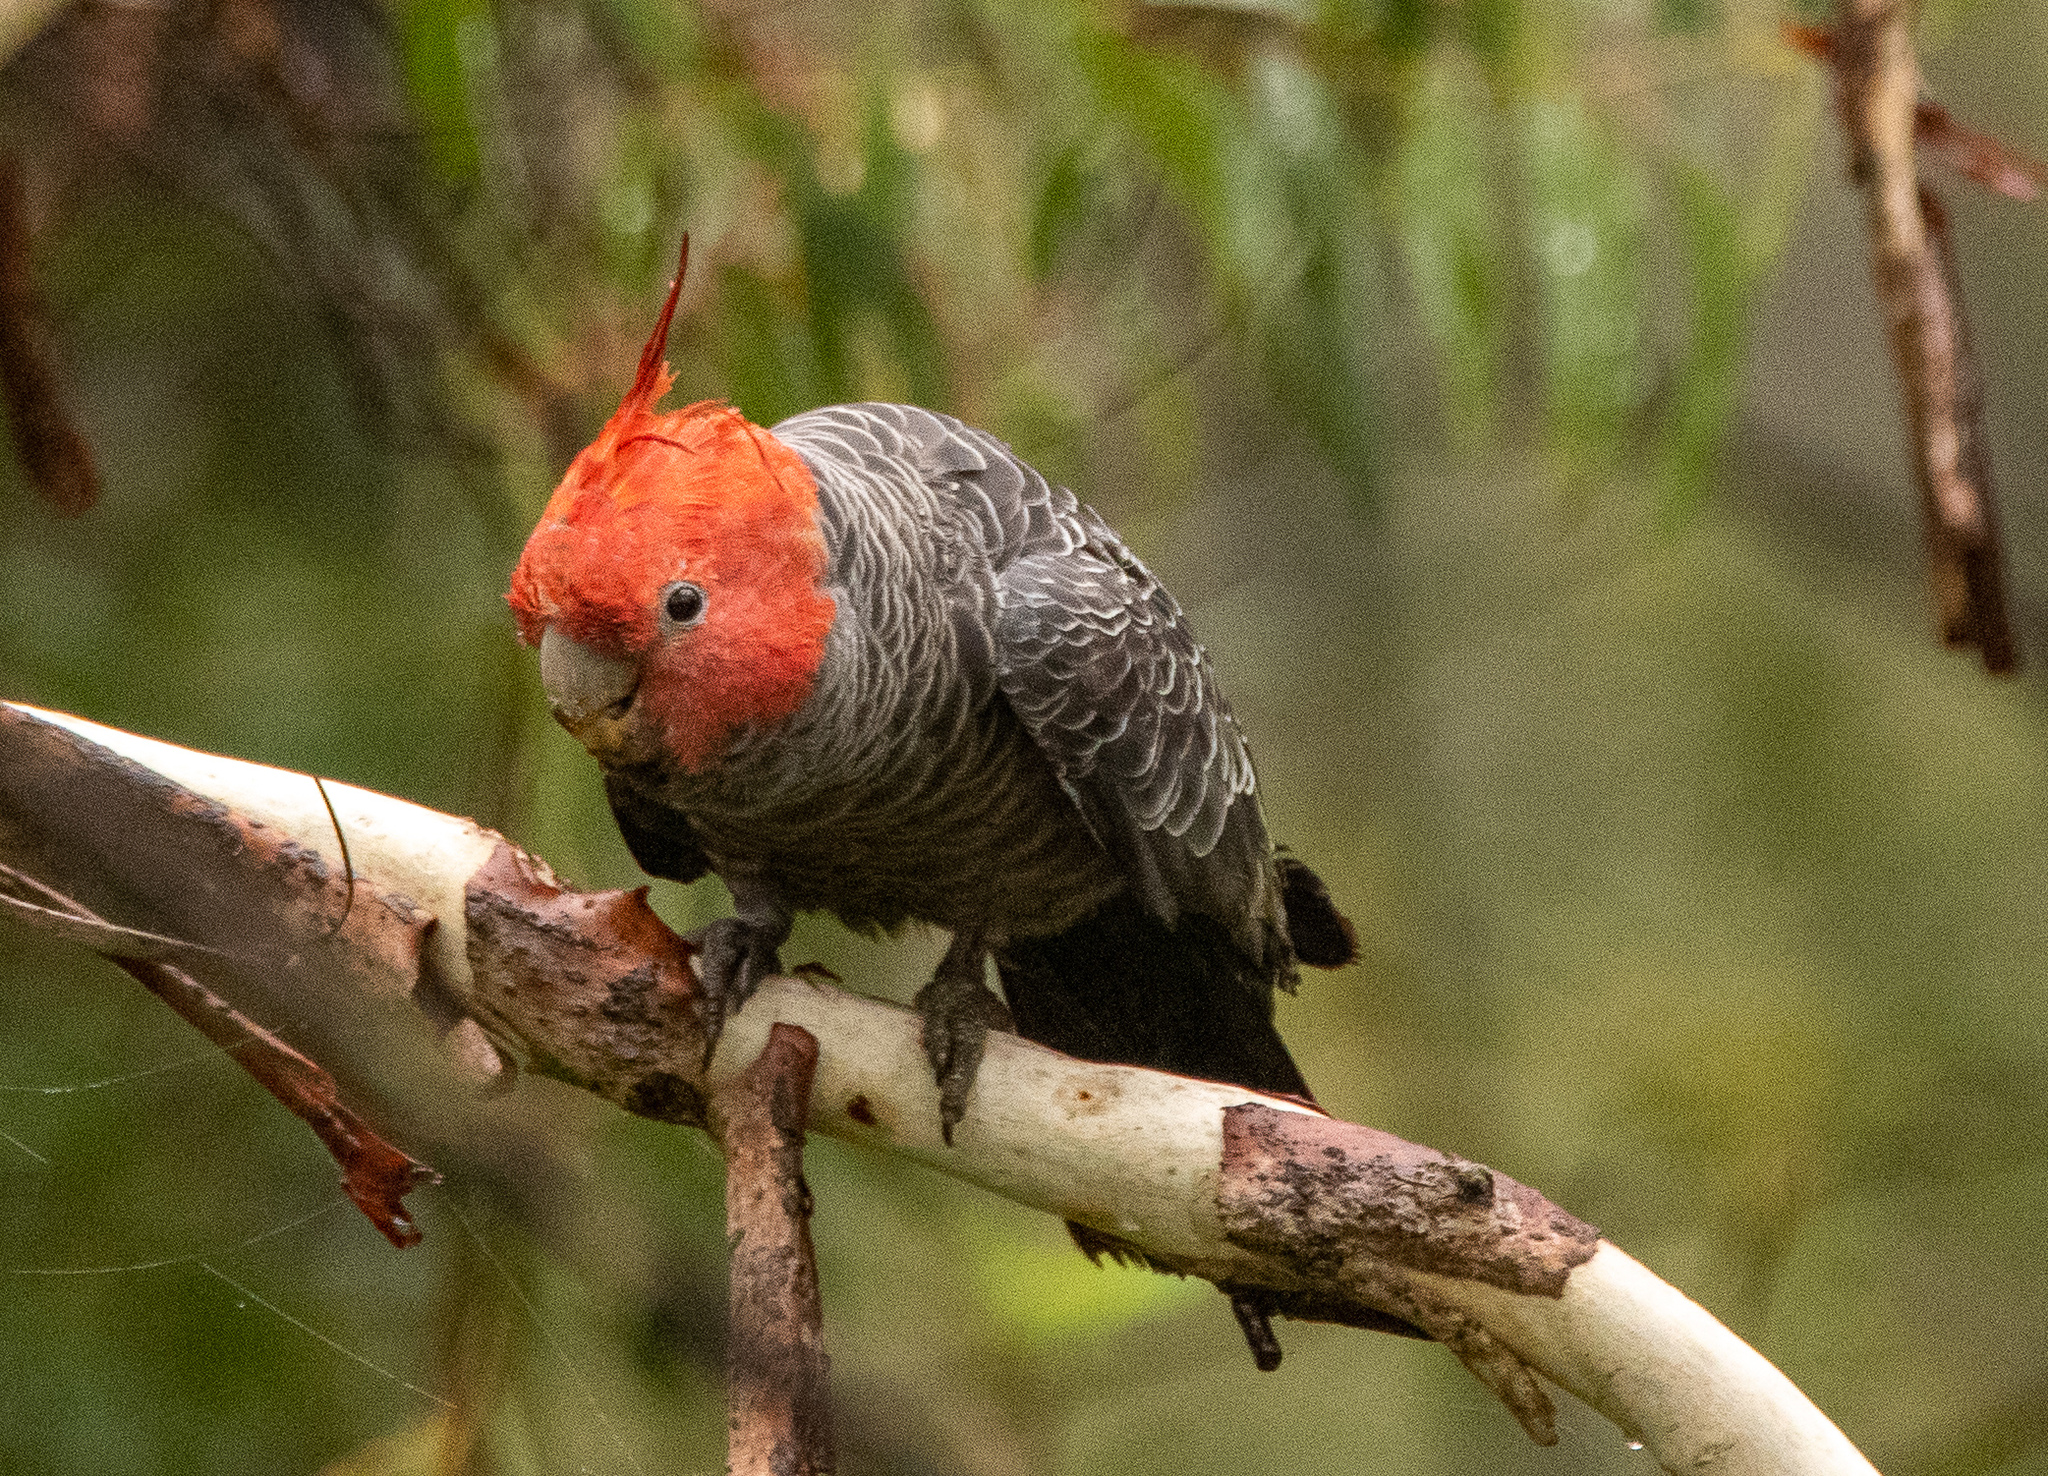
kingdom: Animalia
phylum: Chordata
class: Aves
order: Psittaciformes
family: Psittacidae
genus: Callocephalon
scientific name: Callocephalon fimbriatum
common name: Gang-gang cockatoo
